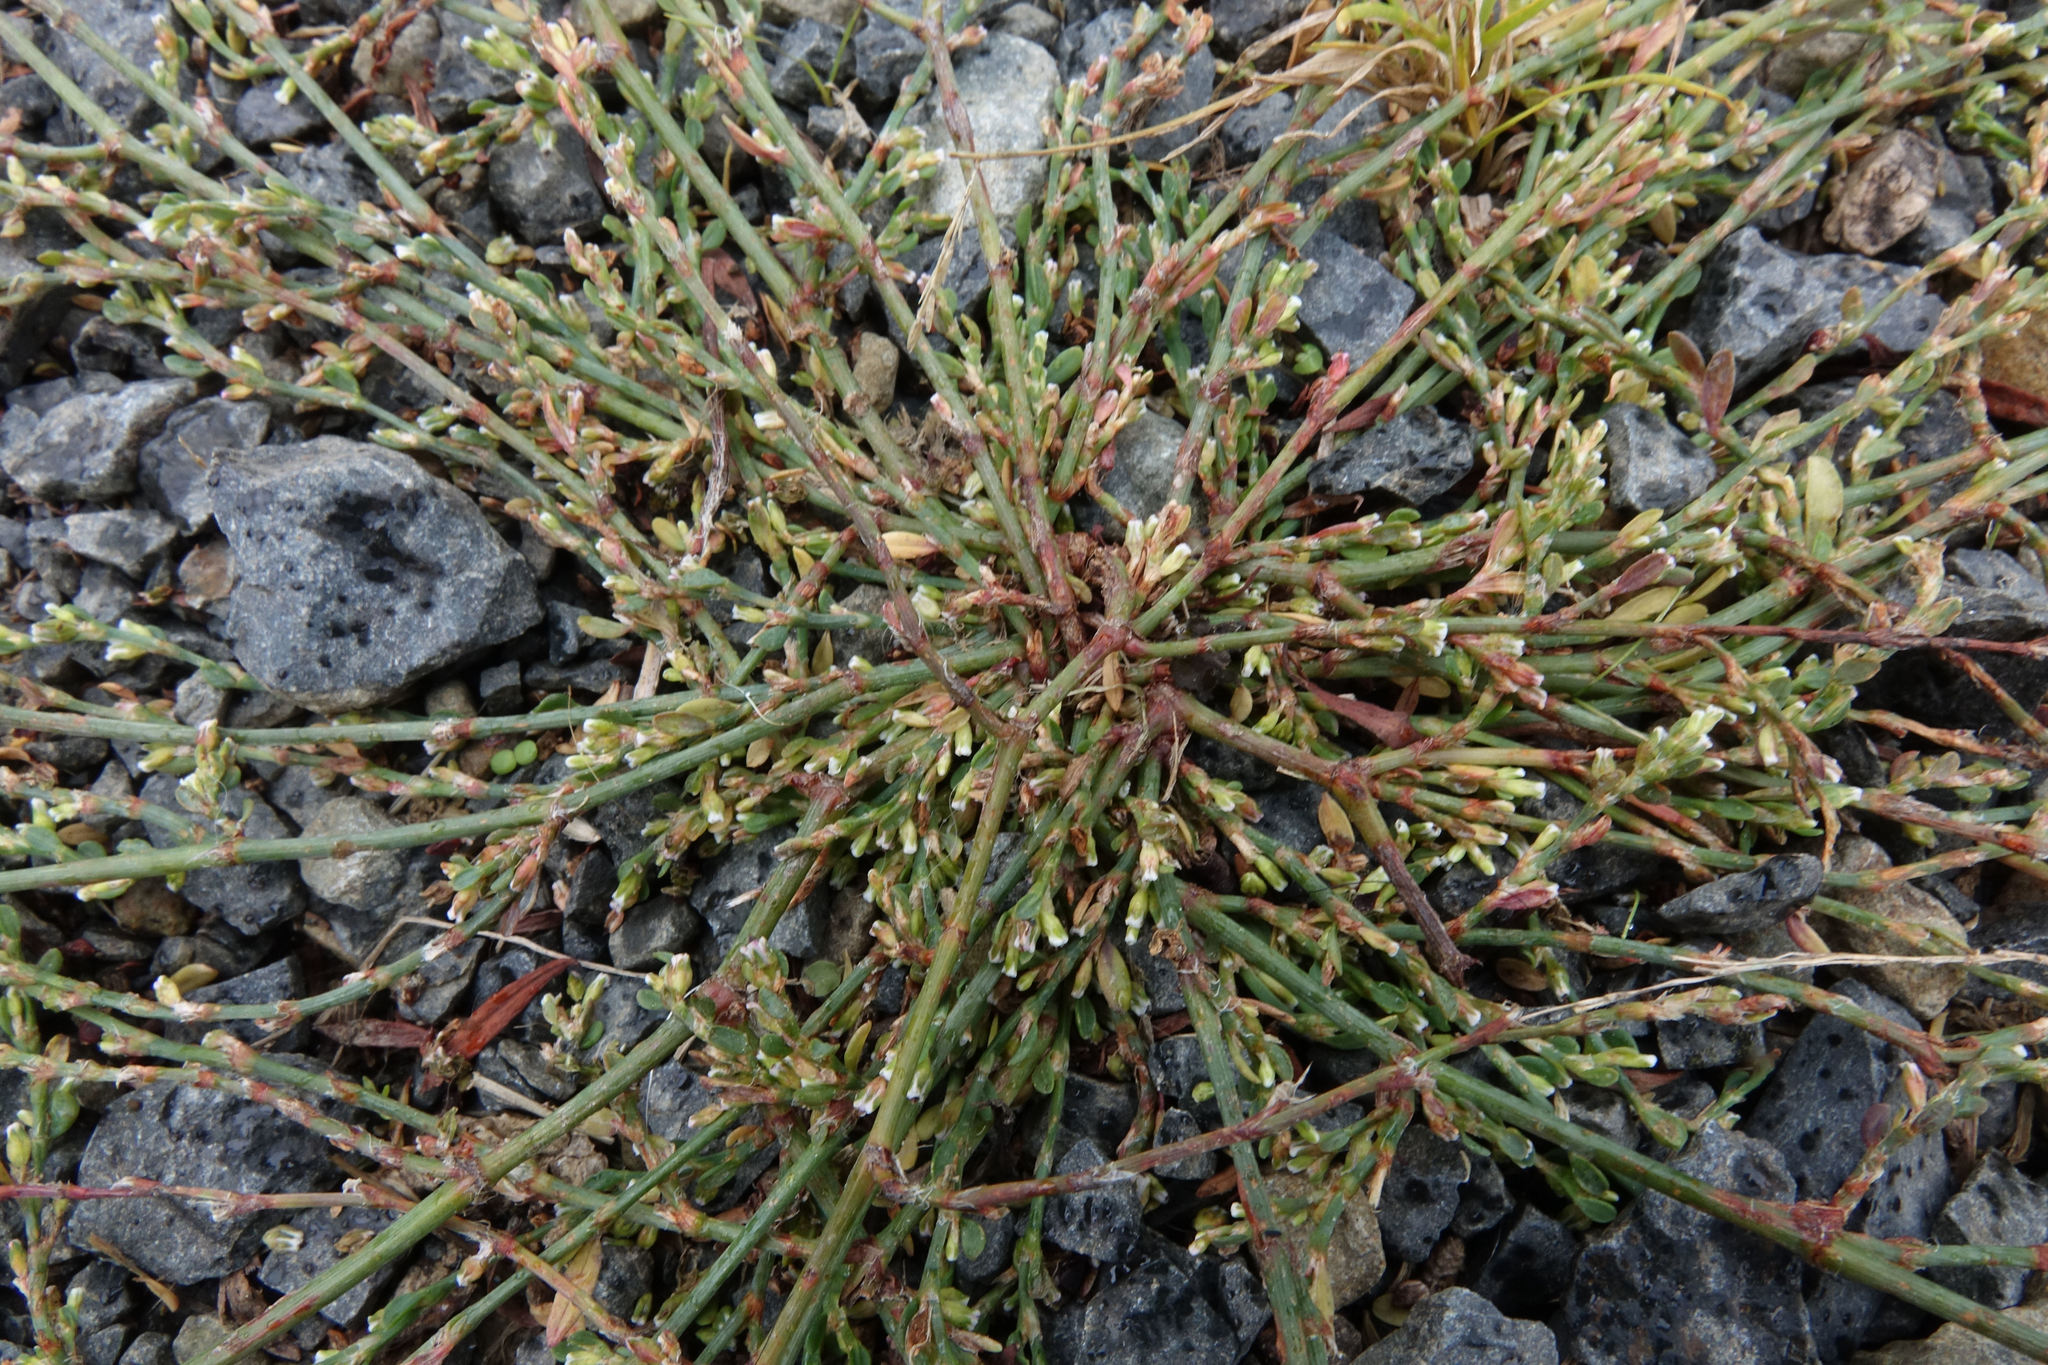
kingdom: Plantae
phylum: Tracheophyta
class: Magnoliopsida
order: Caryophyllales
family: Polygonaceae
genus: Polygonum
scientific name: Polygonum aviculare
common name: Prostrate knotweed
